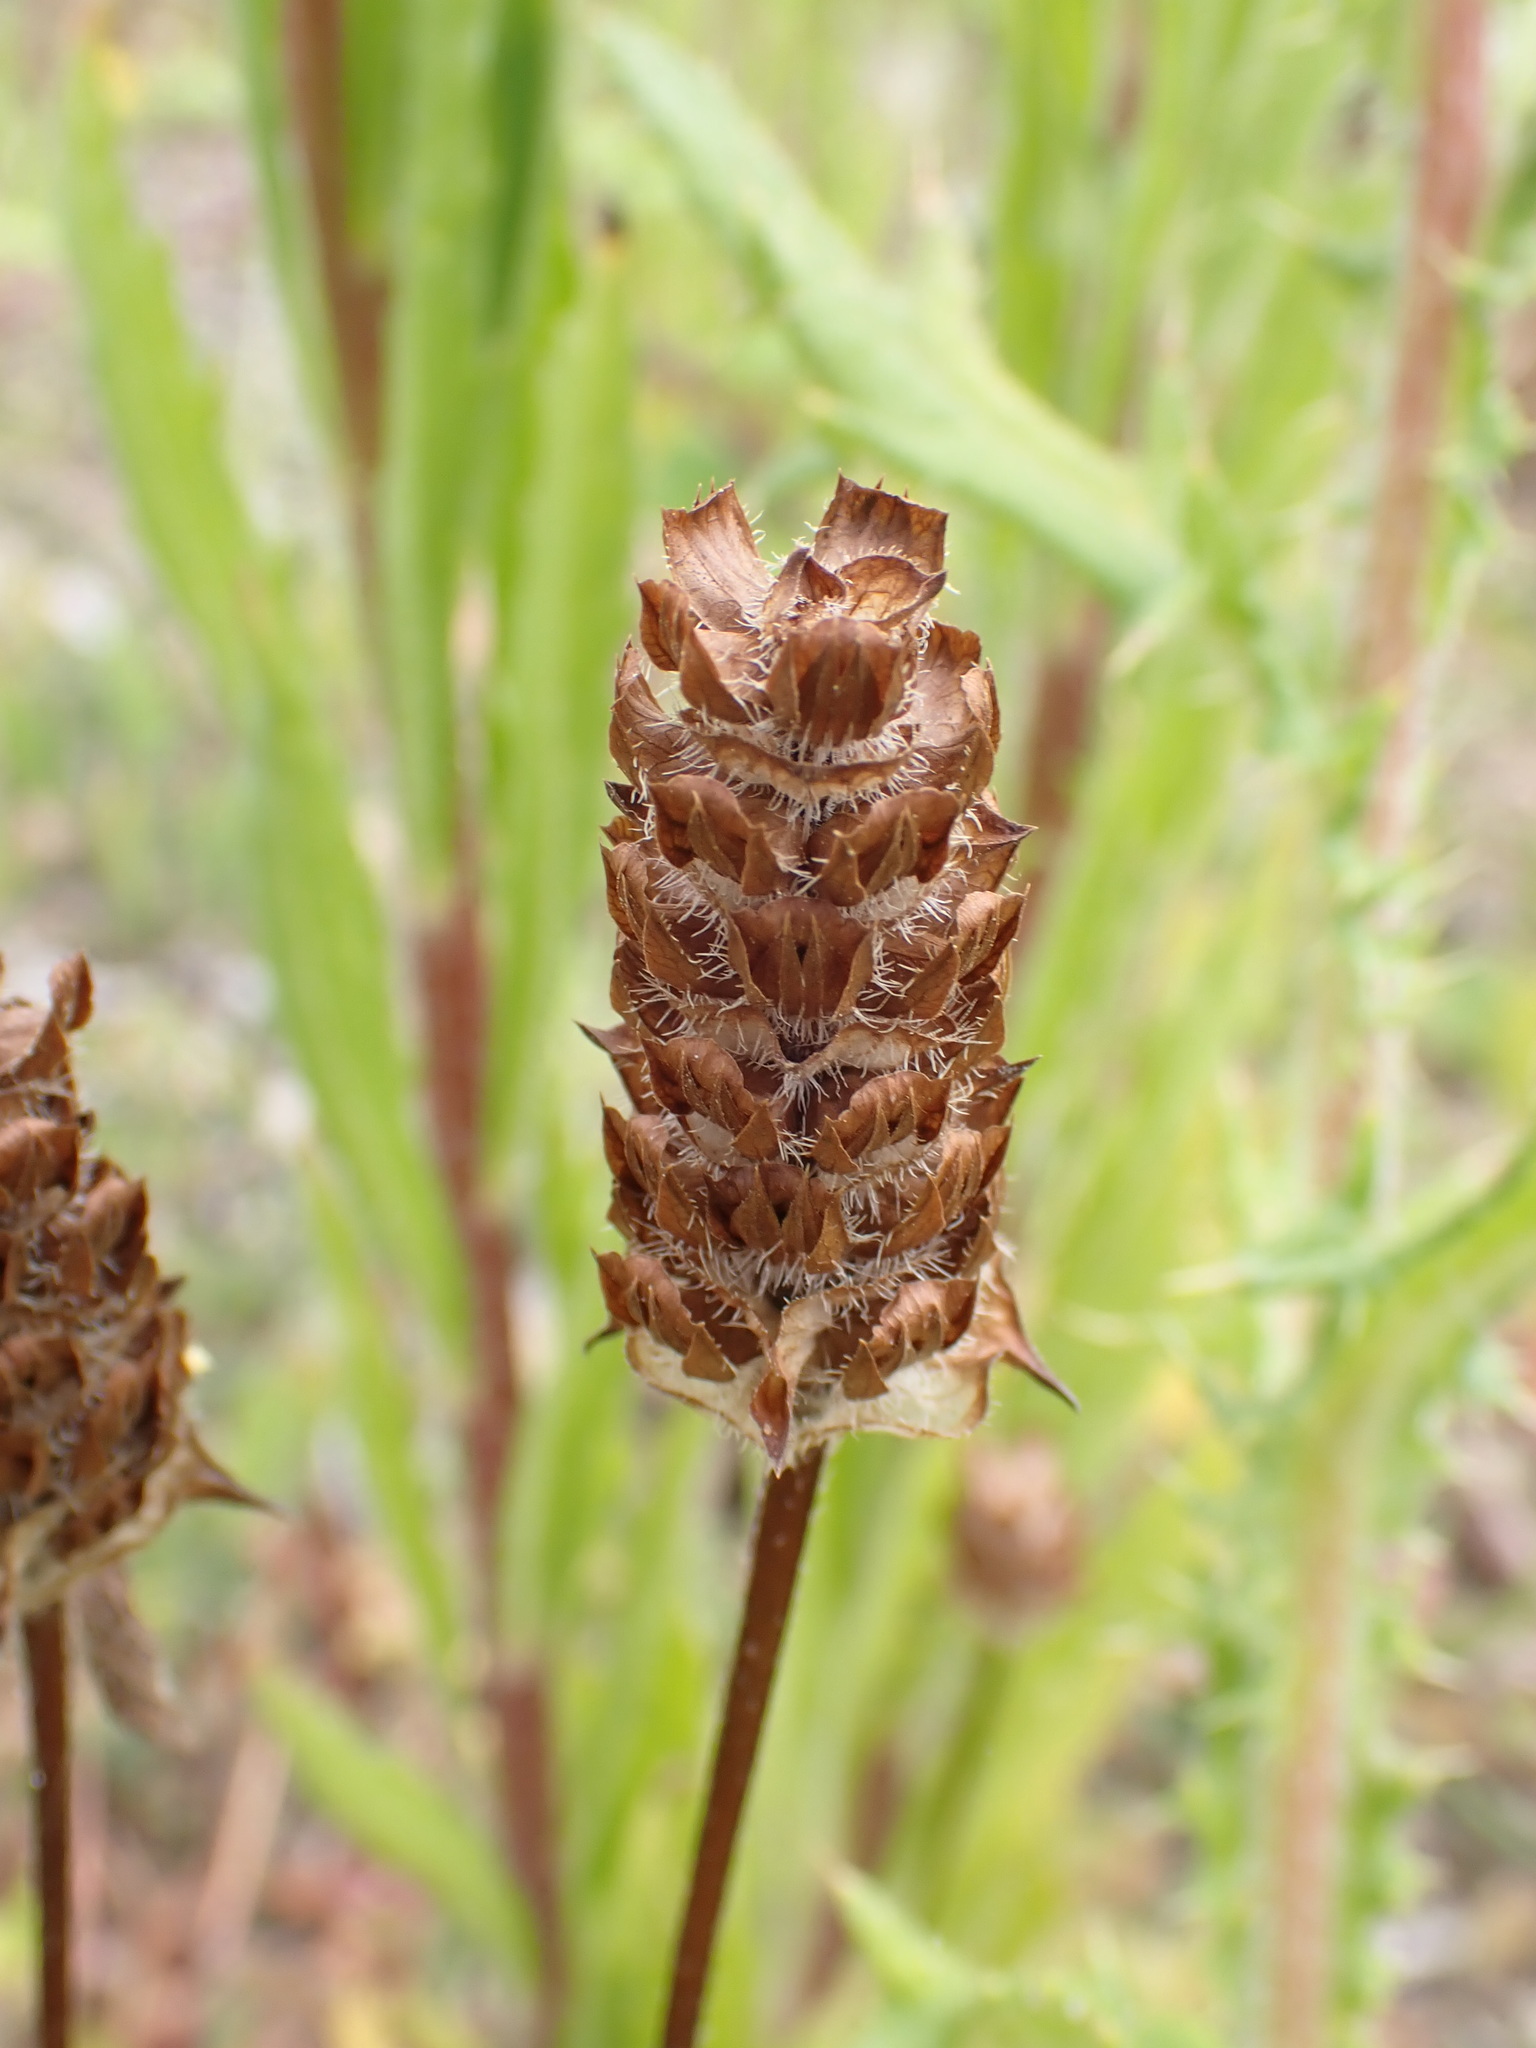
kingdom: Plantae
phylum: Tracheophyta
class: Magnoliopsida
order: Lamiales
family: Lamiaceae
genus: Prunella
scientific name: Prunella vulgaris
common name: Heal-all
